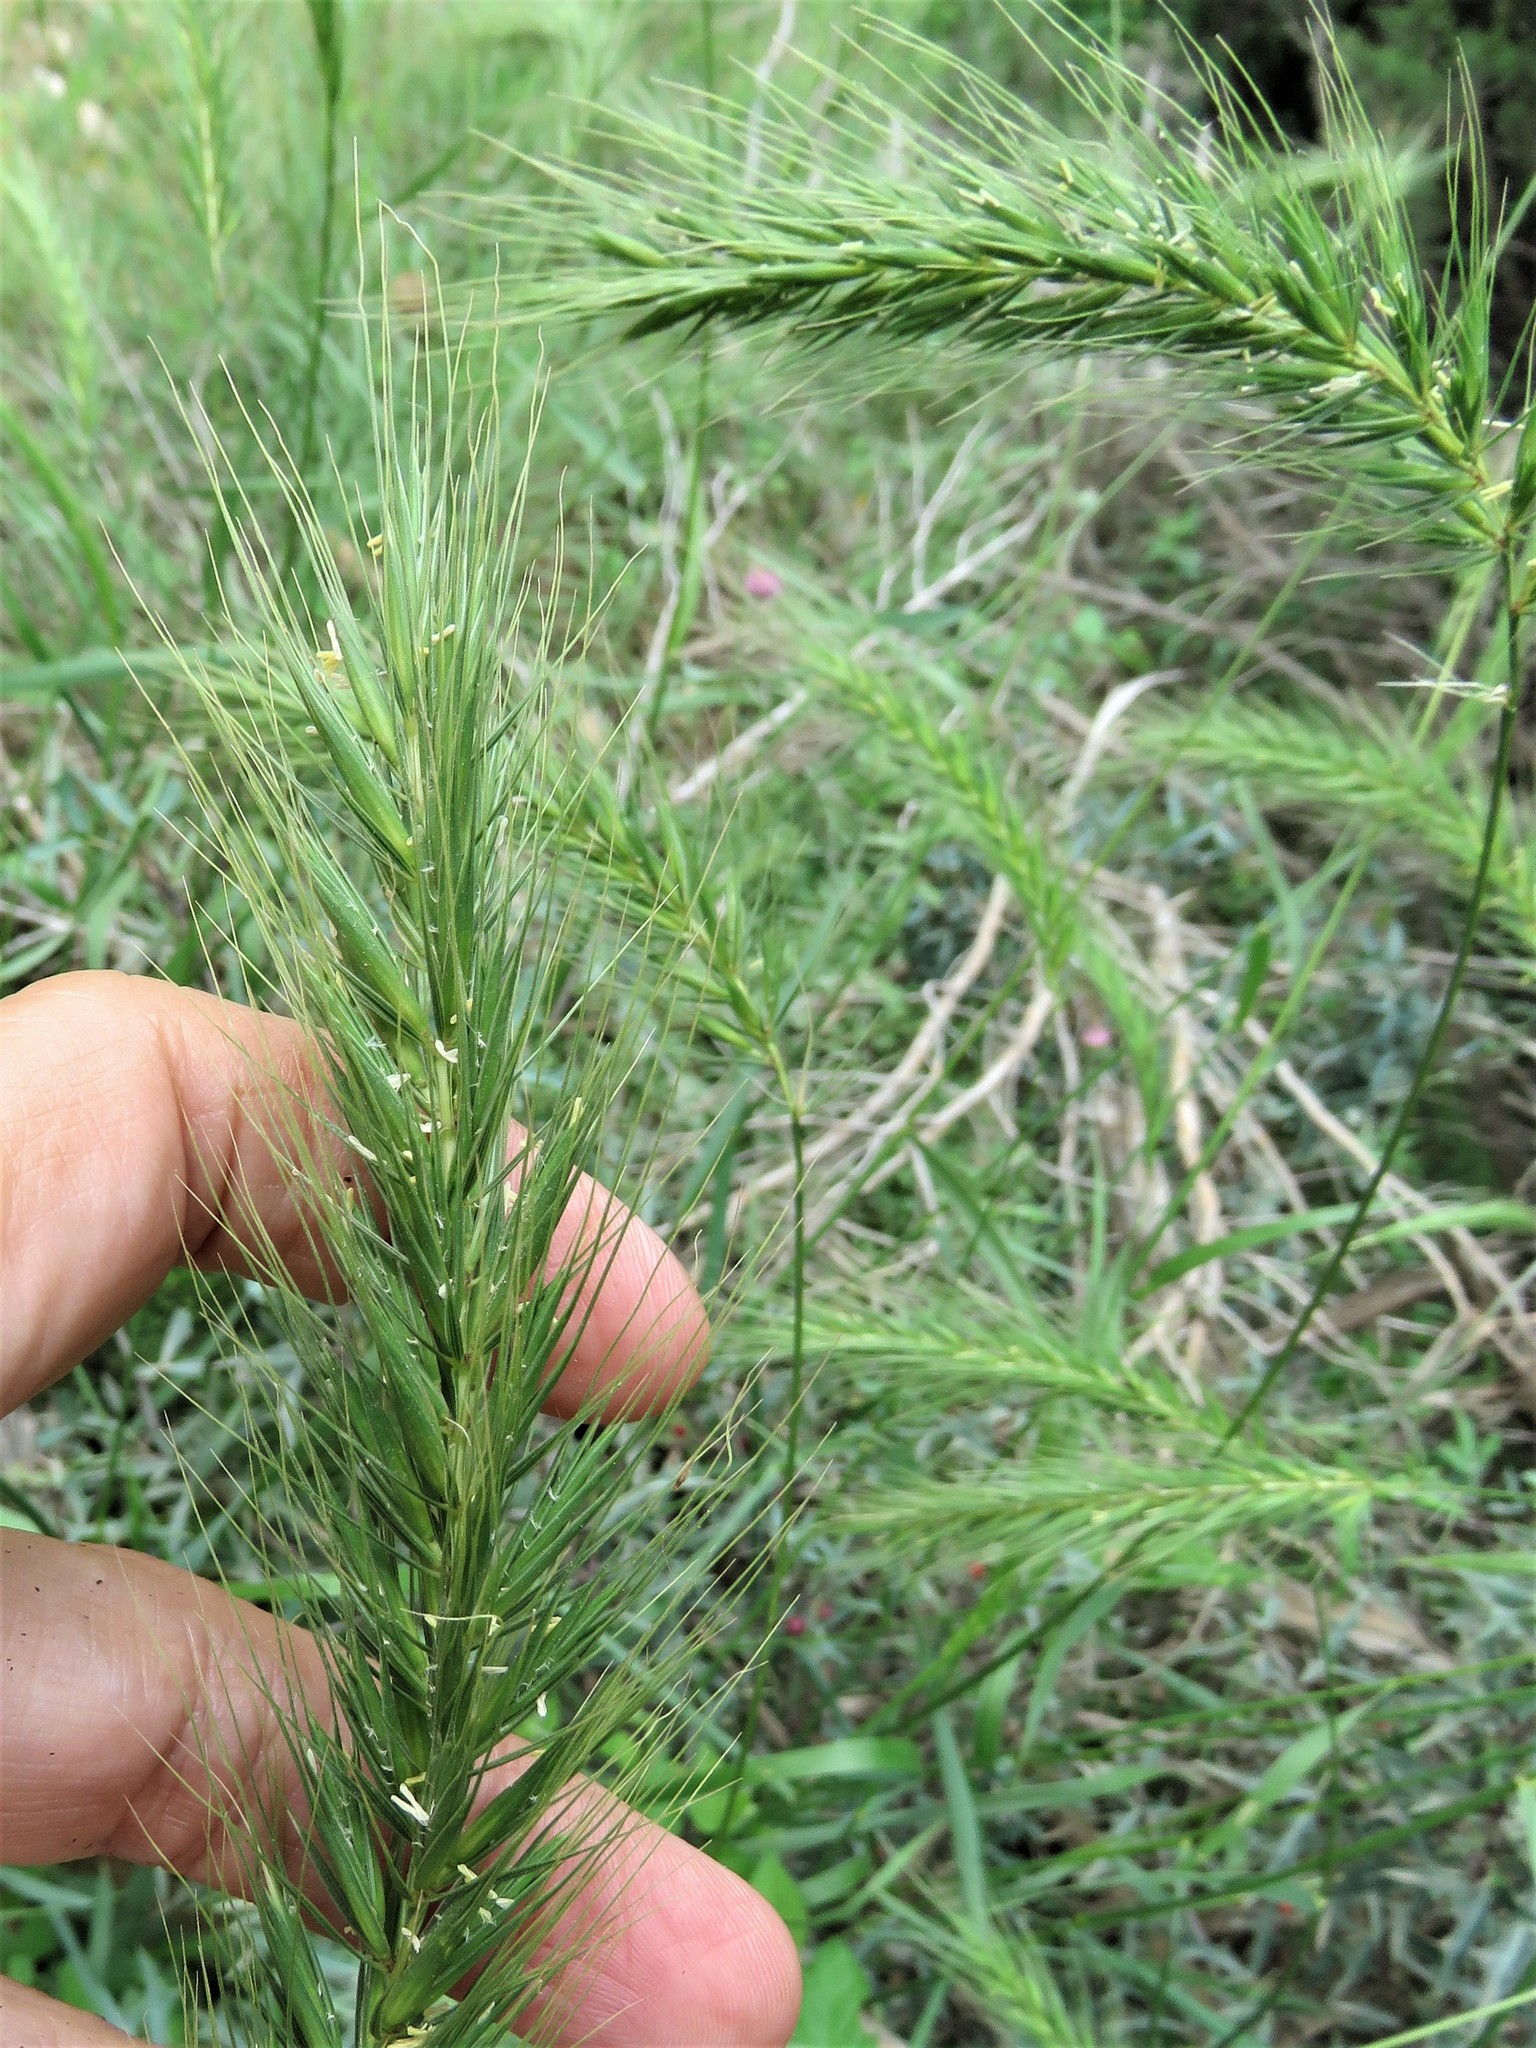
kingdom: Plantae
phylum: Tracheophyta
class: Liliopsida
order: Poales
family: Poaceae
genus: Elymus
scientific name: Elymus canadensis
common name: Canada wild rye
